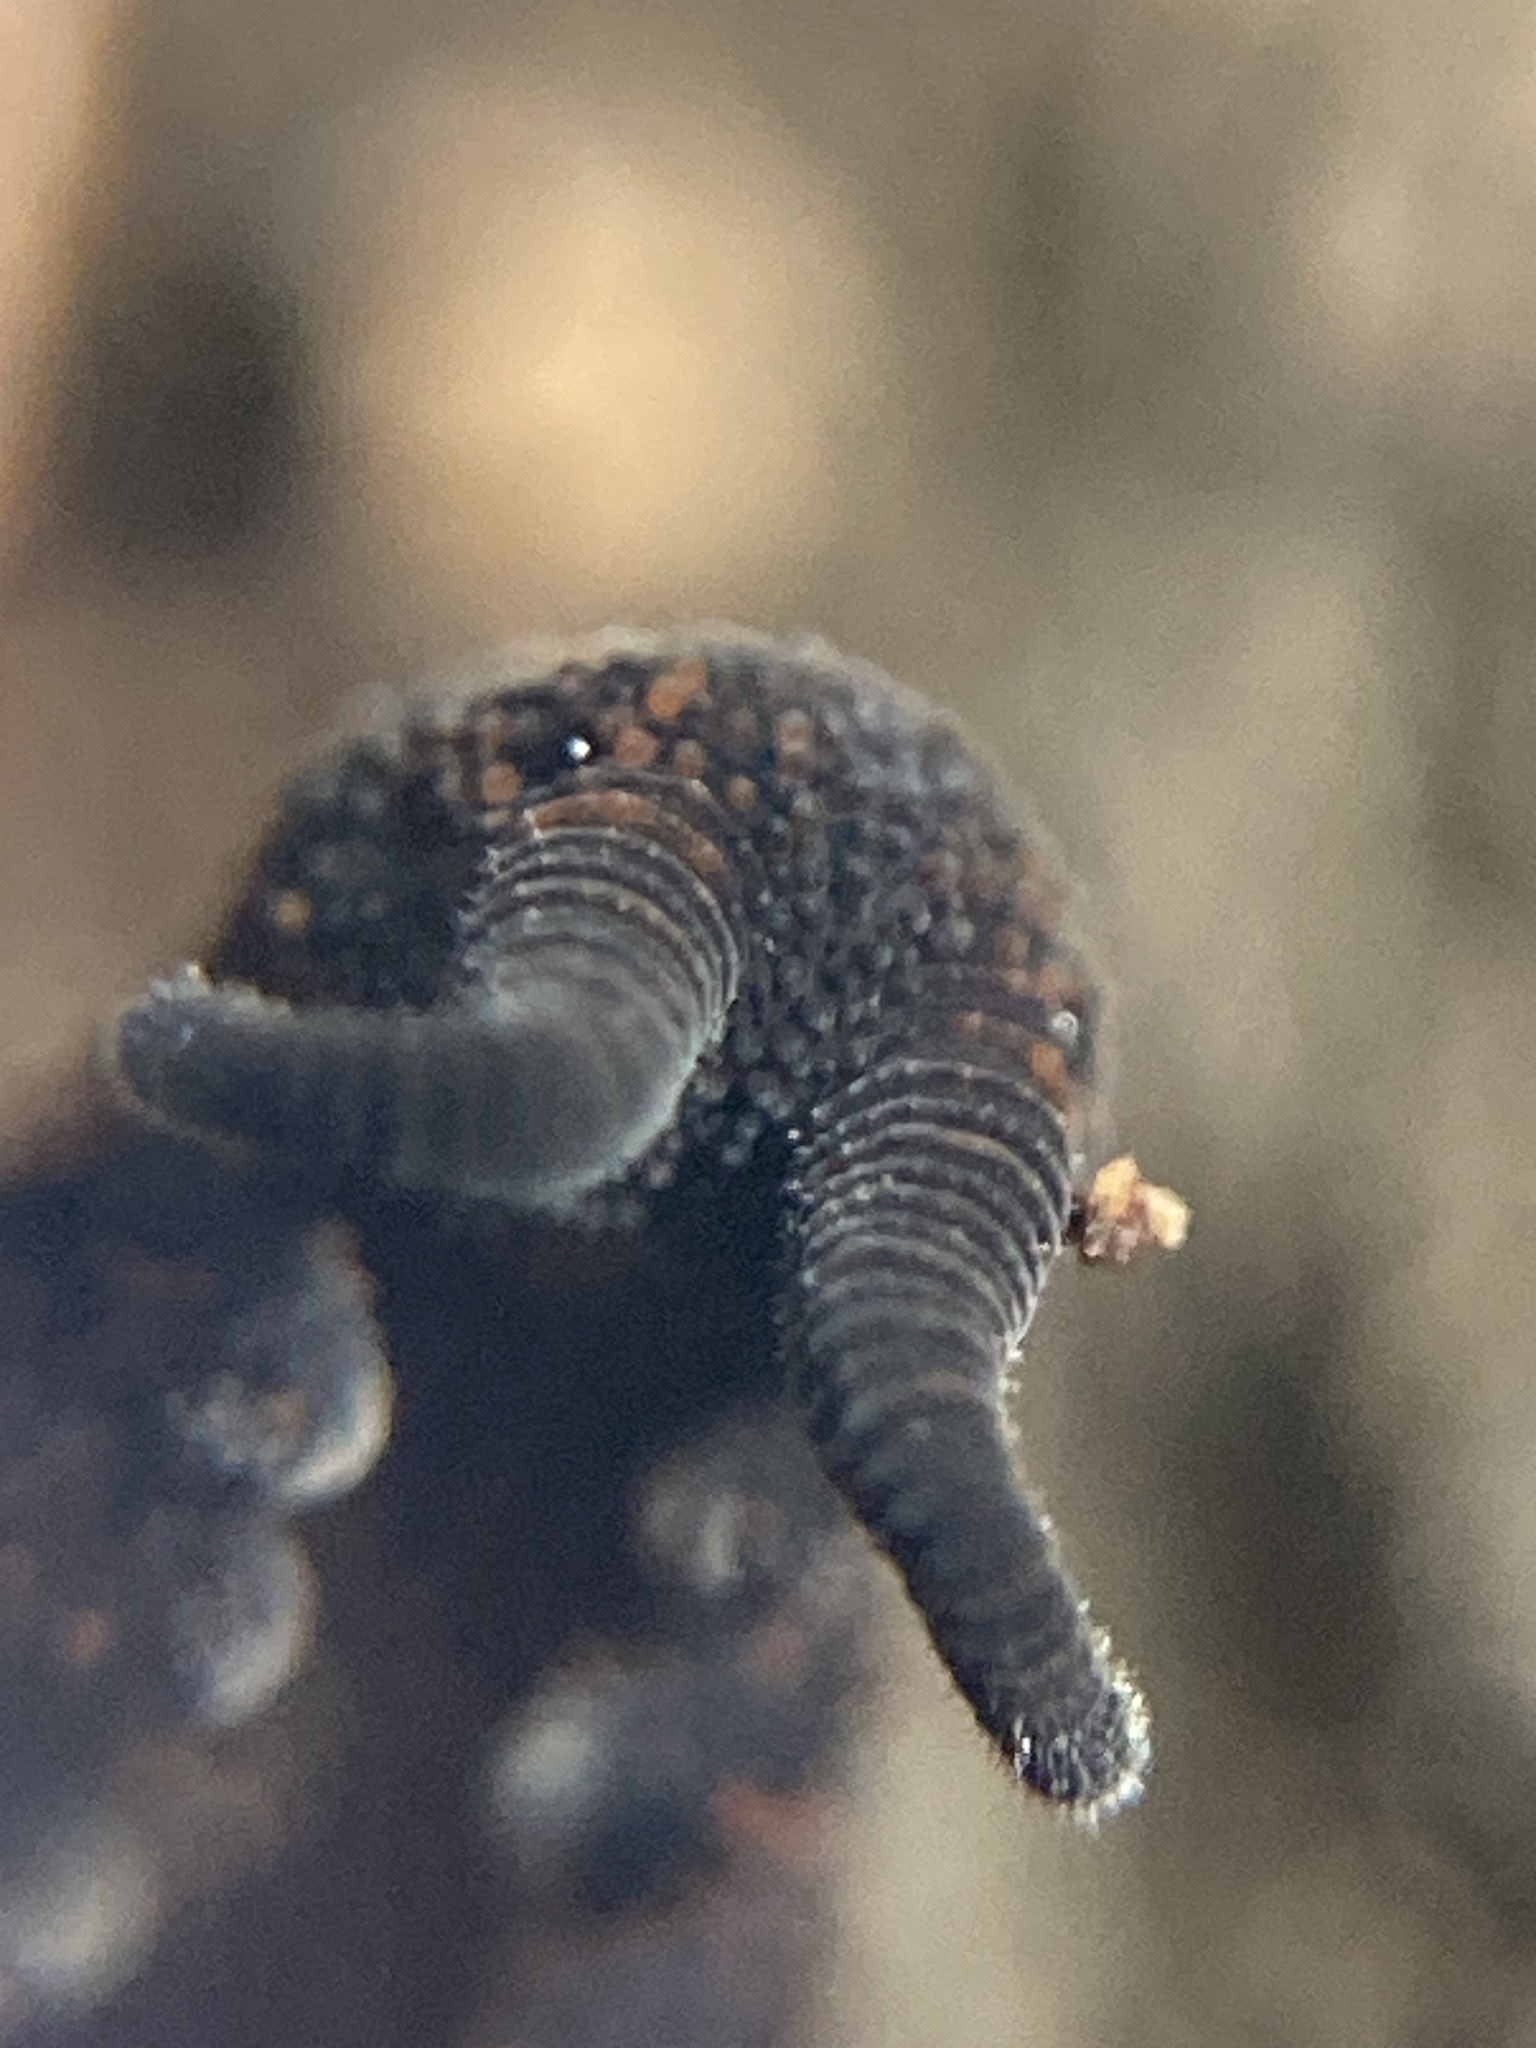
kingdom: Animalia
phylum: Onychophora
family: Peripatopsidae
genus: Anoplokaros
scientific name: Anoplokaros keerensis
